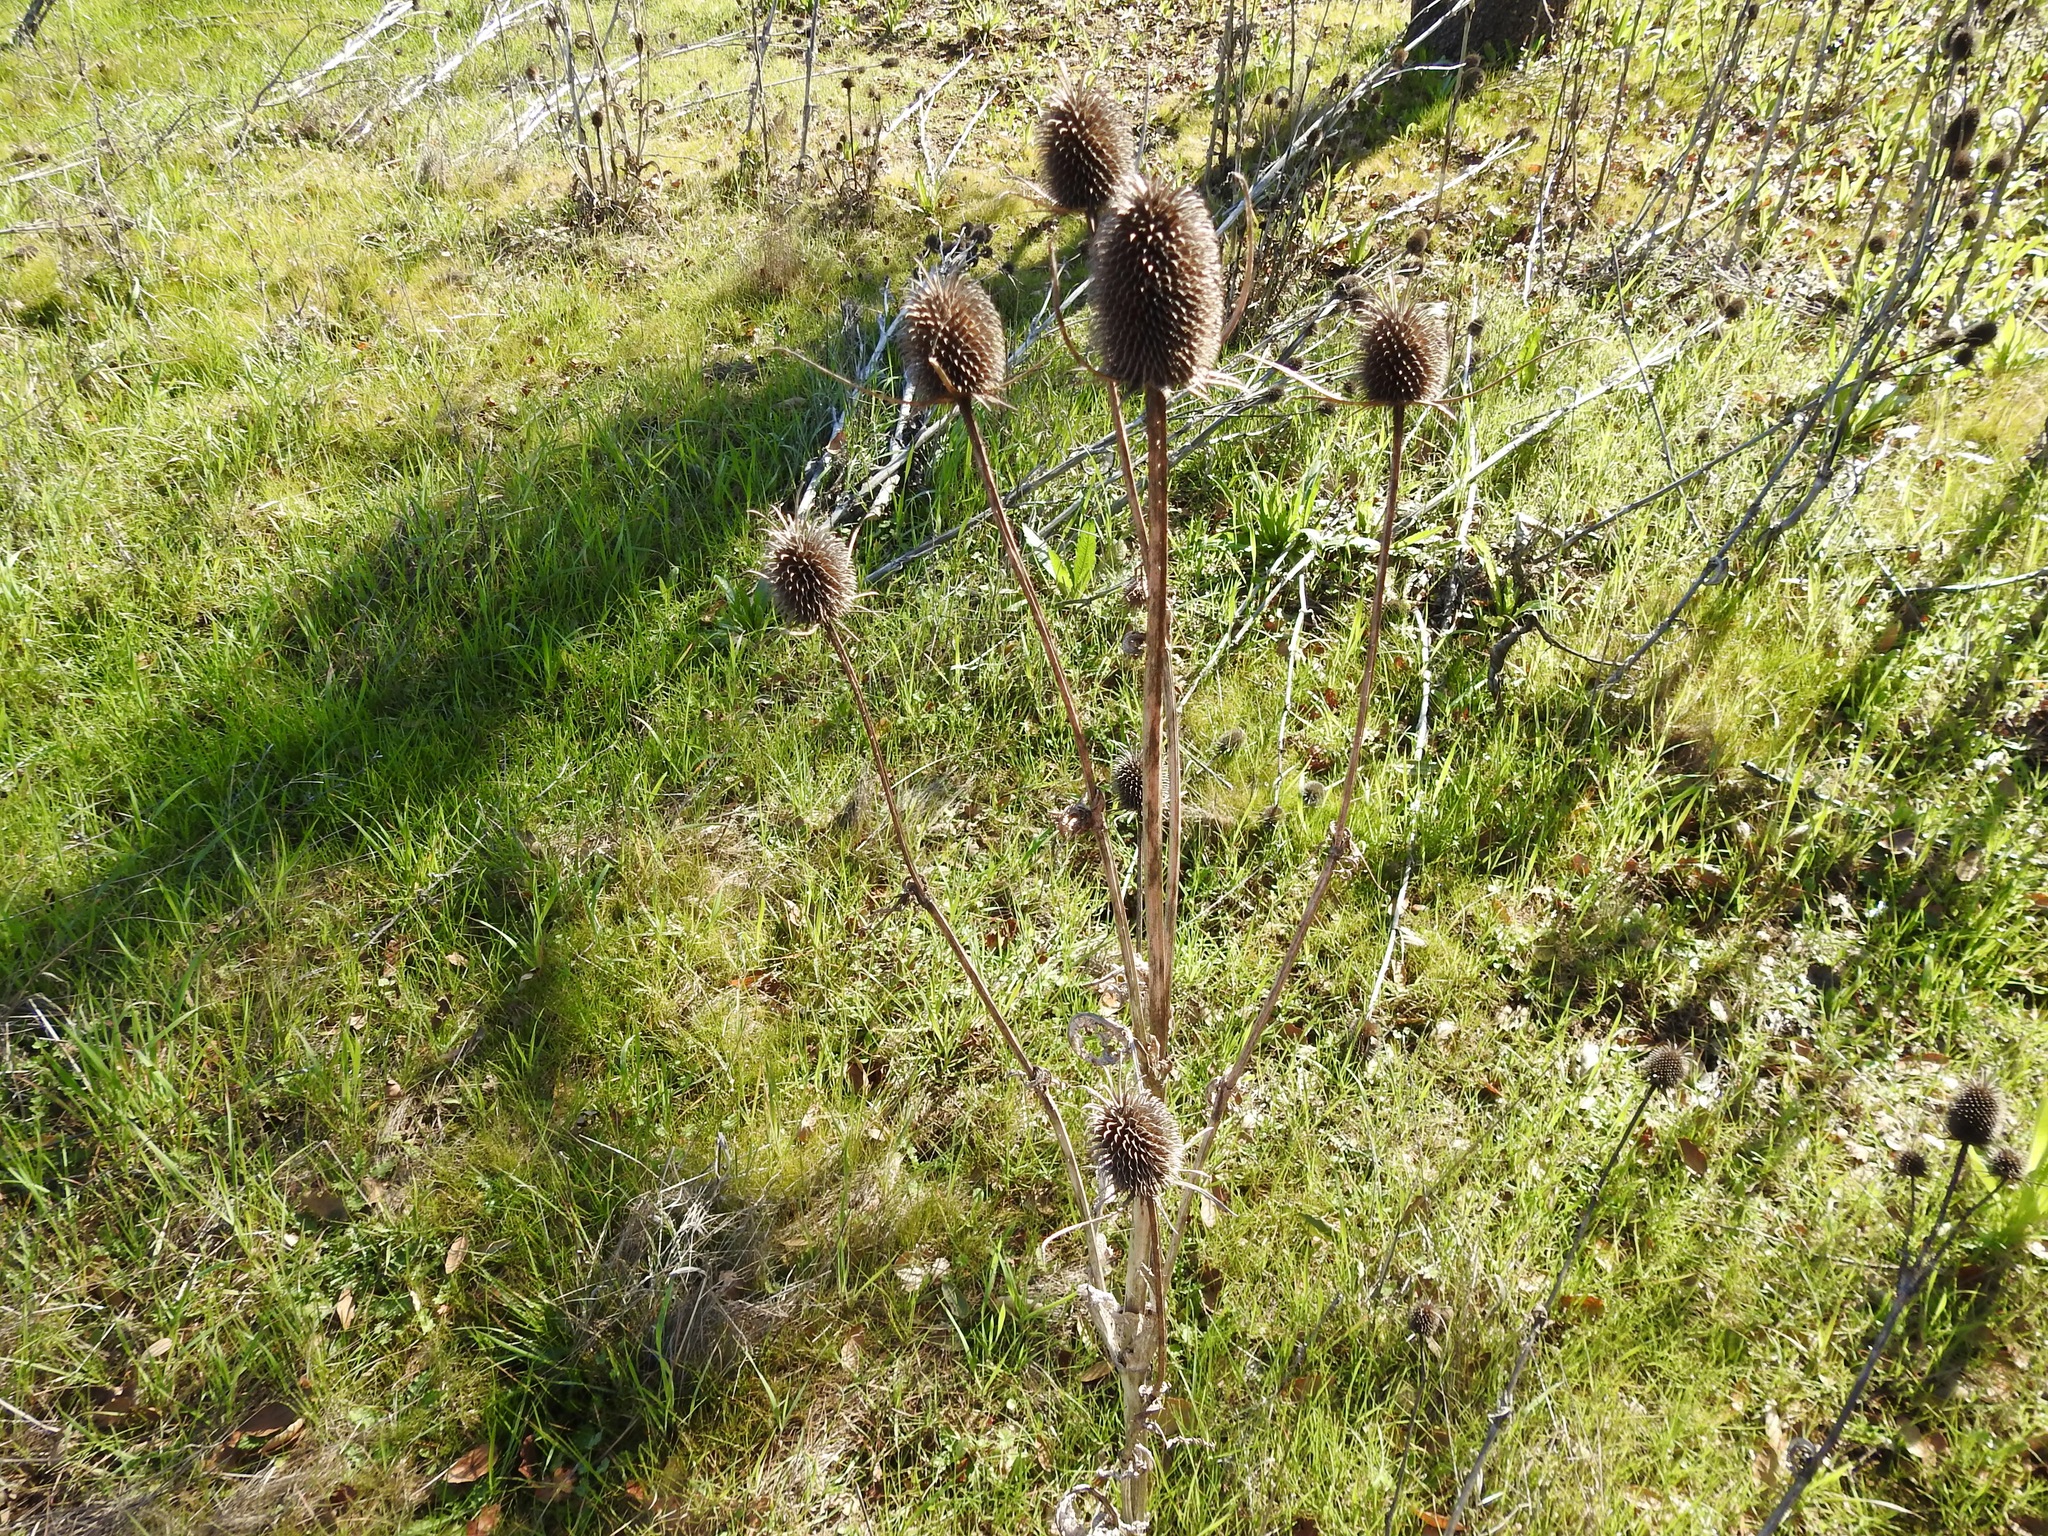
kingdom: Plantae
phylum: Tracheophyta
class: Magnoliopsida
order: Dipsacales
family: Caprifoliaceae
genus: Dipsacus
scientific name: Dipsacus sativus
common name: Fuller's teasel
